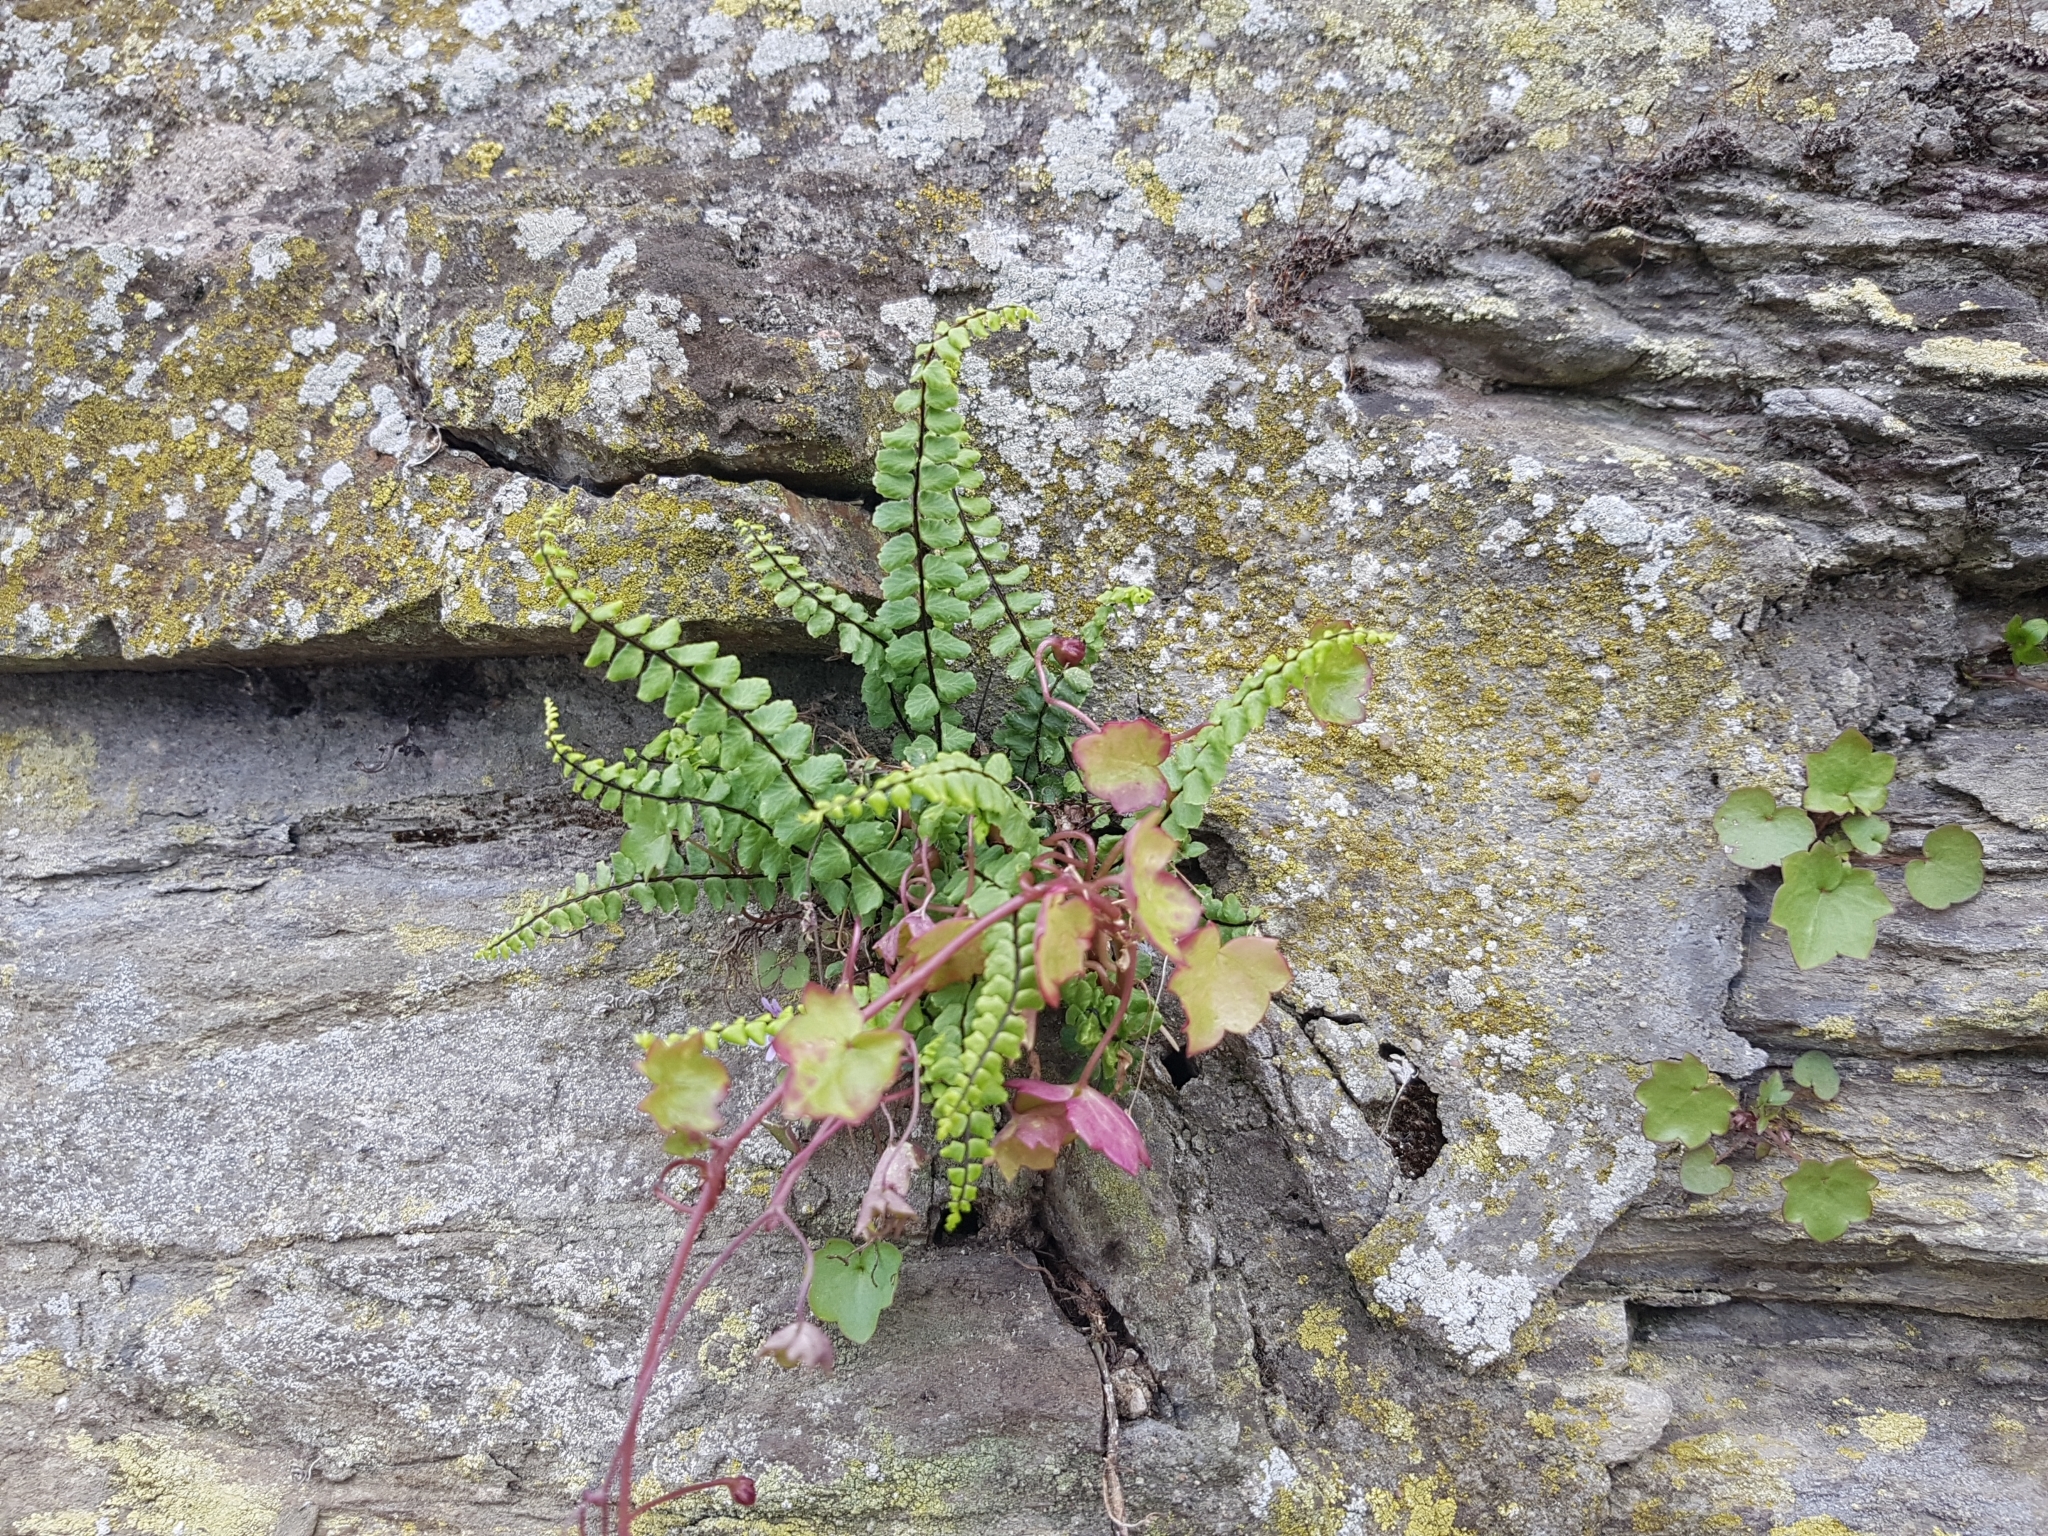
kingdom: Plantae
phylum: Tracheophyta
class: Polypodiopsida
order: Polypodiales
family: Aspleniaceae
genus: Asplenium
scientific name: Asplenium trichomanes
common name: Maidenhair spleenwort
